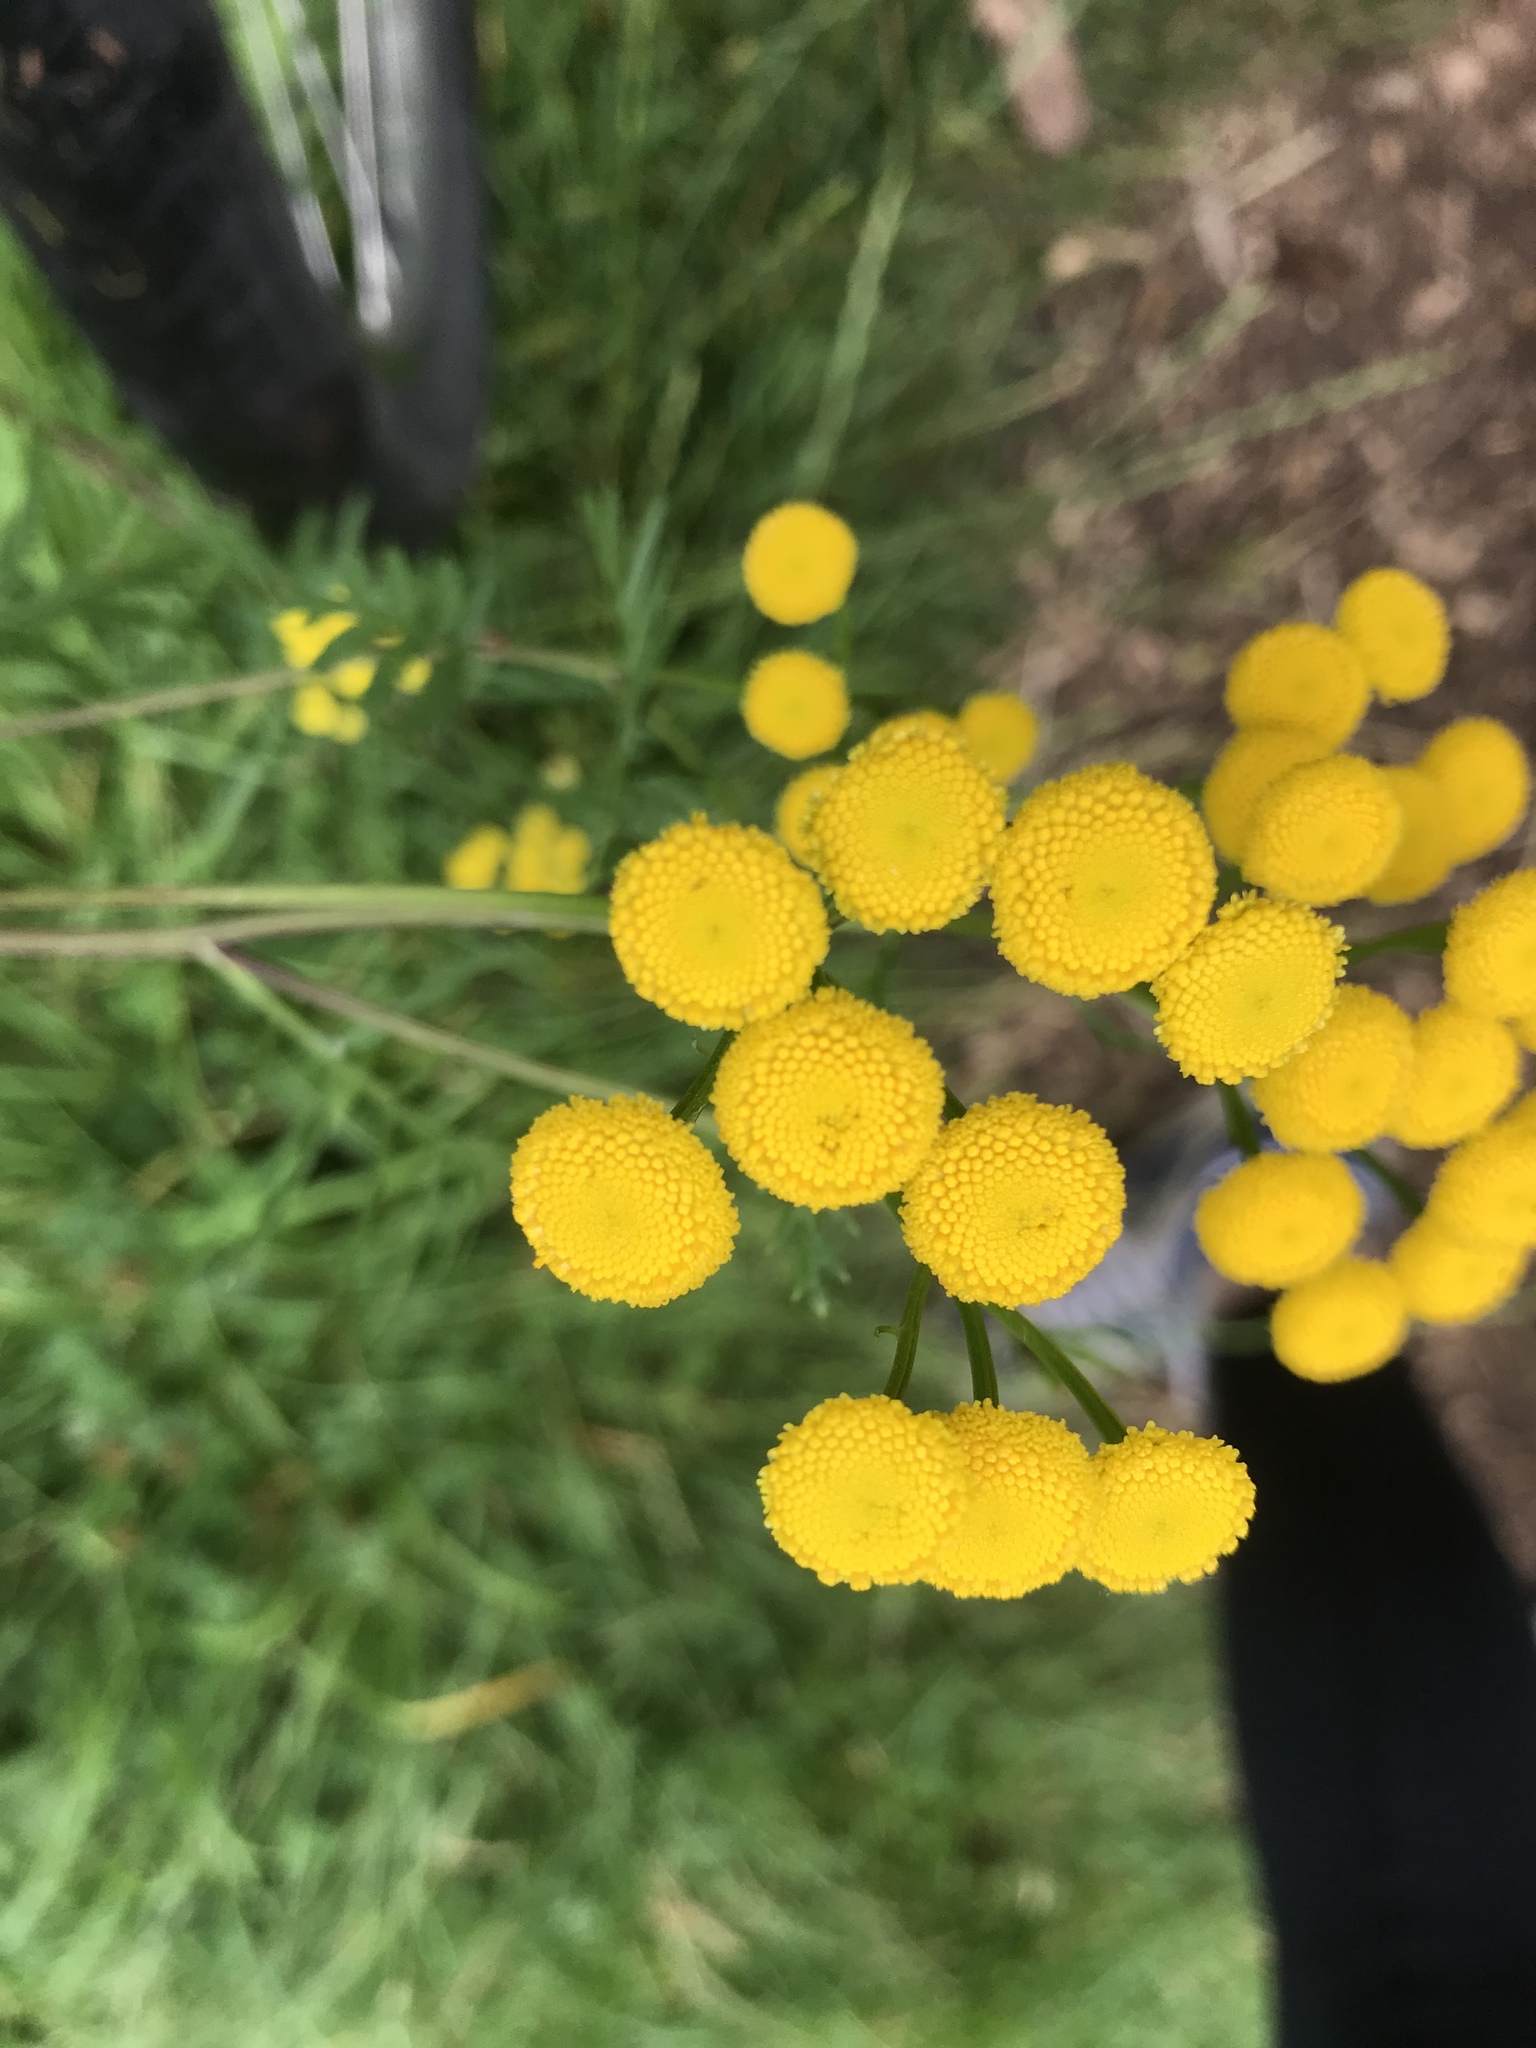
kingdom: Plantae
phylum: Tracheophyta
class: Magnoliopsida
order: Asterales
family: Asteraceae
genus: Tanacetum
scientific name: Tanacetum vulgare
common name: Common tansy
